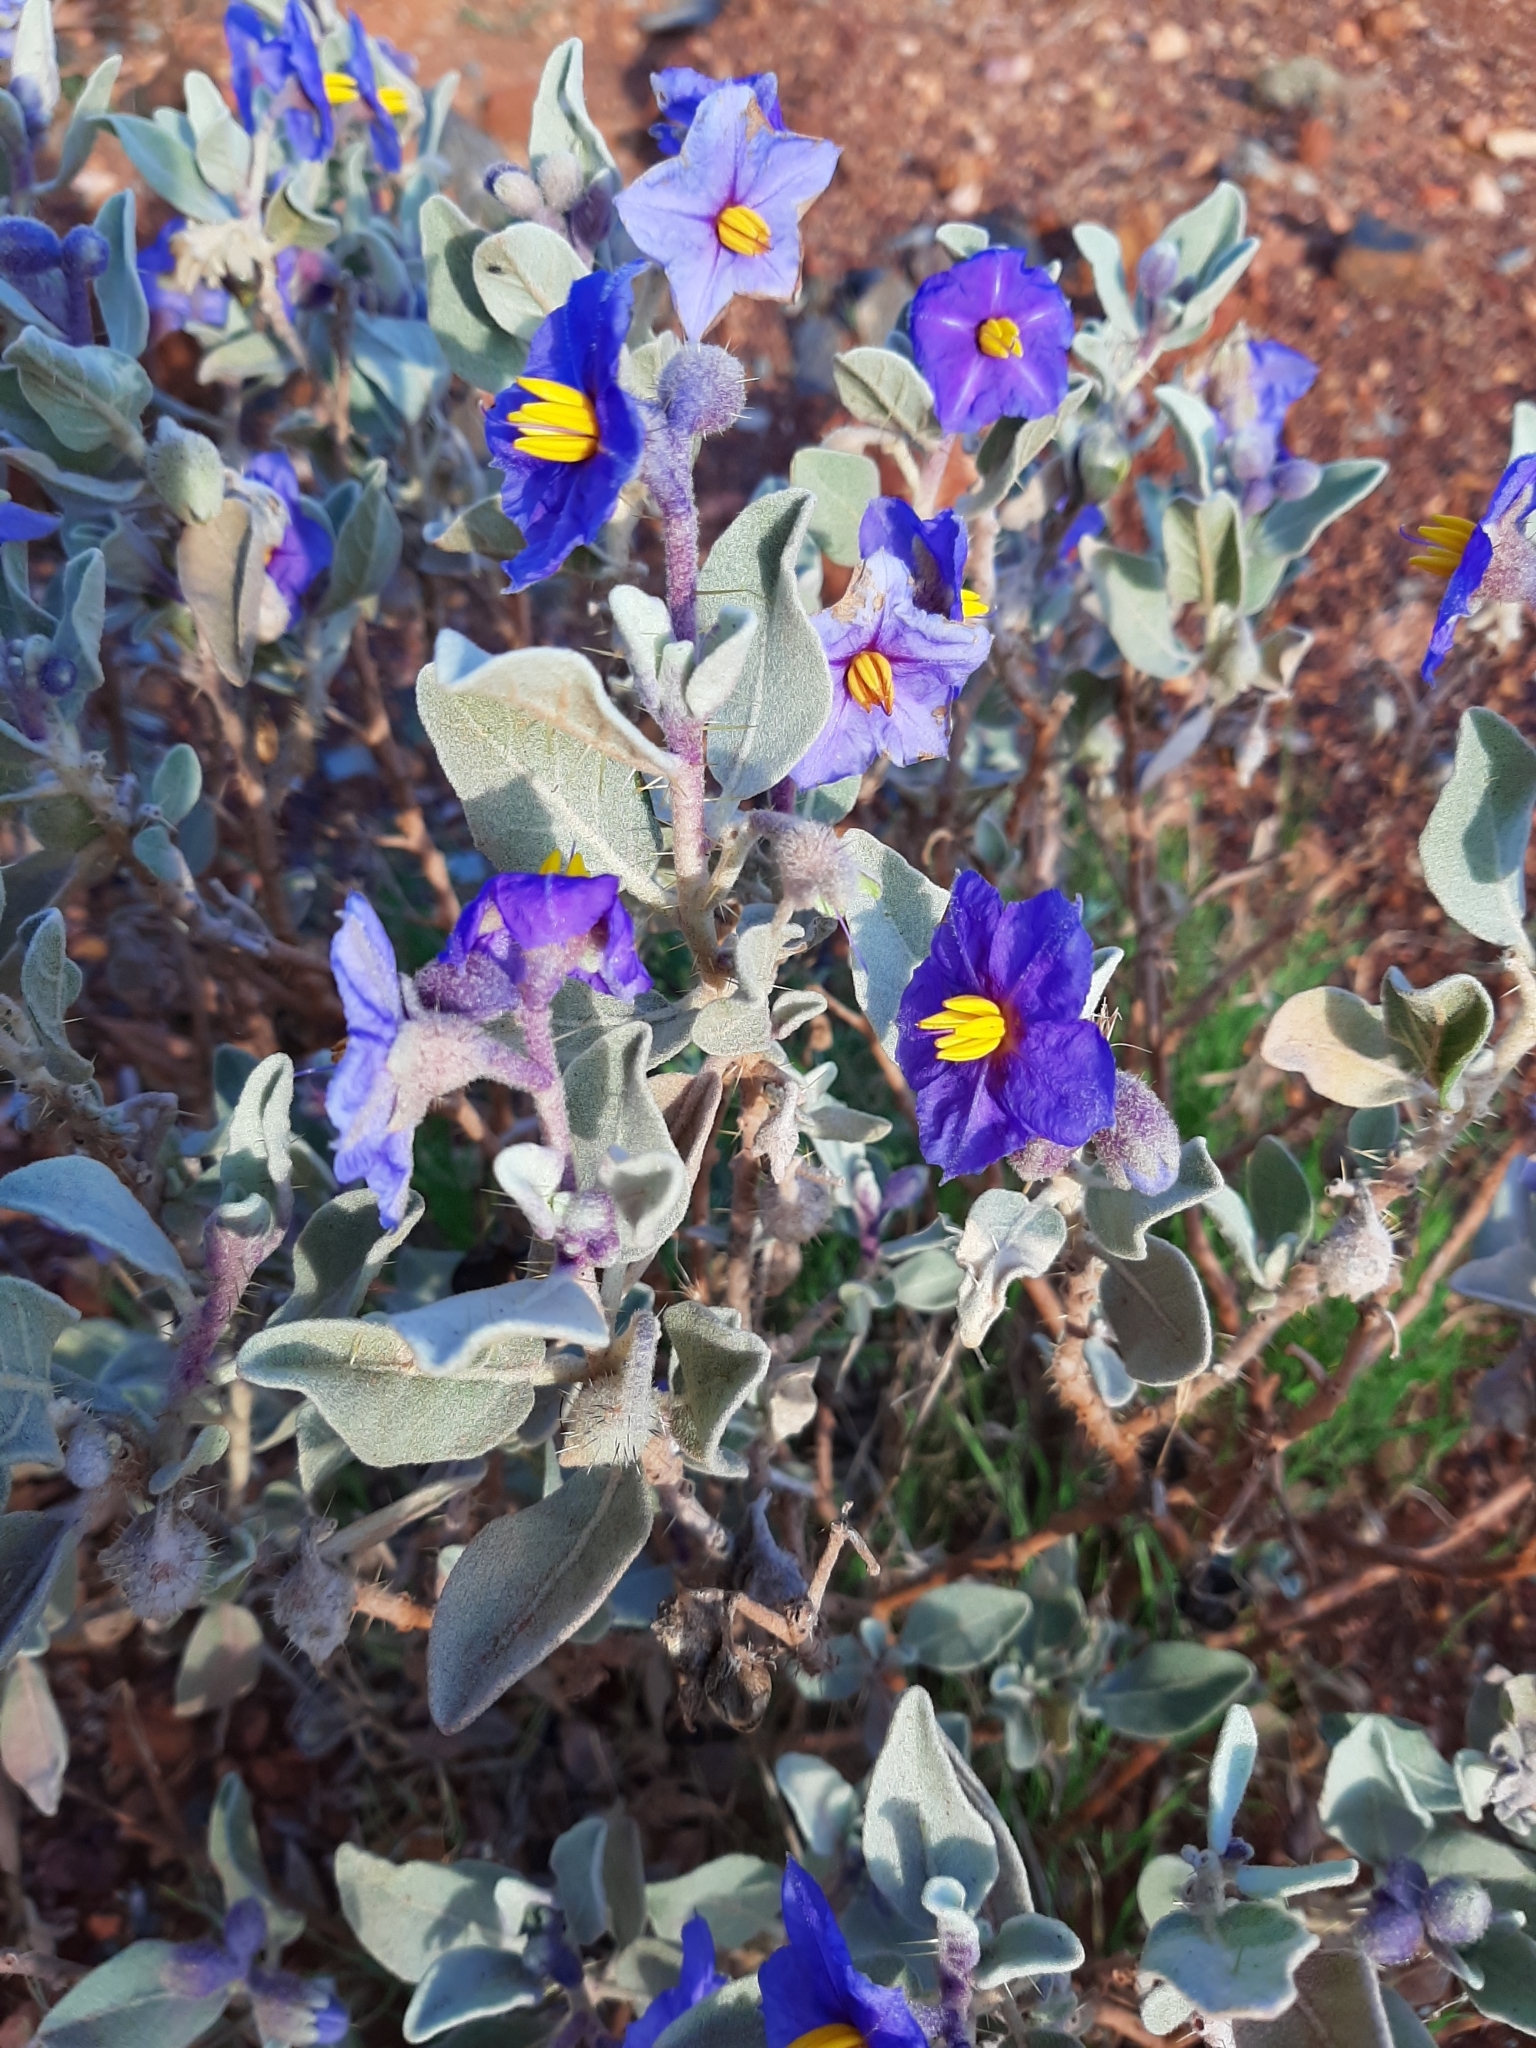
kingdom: Plantae
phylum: Tracheophyta
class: Magnoliopsida
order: Solanales
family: Solanaceae
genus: Solanum
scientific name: Solanum lasiophyllum
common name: Flannelbush
